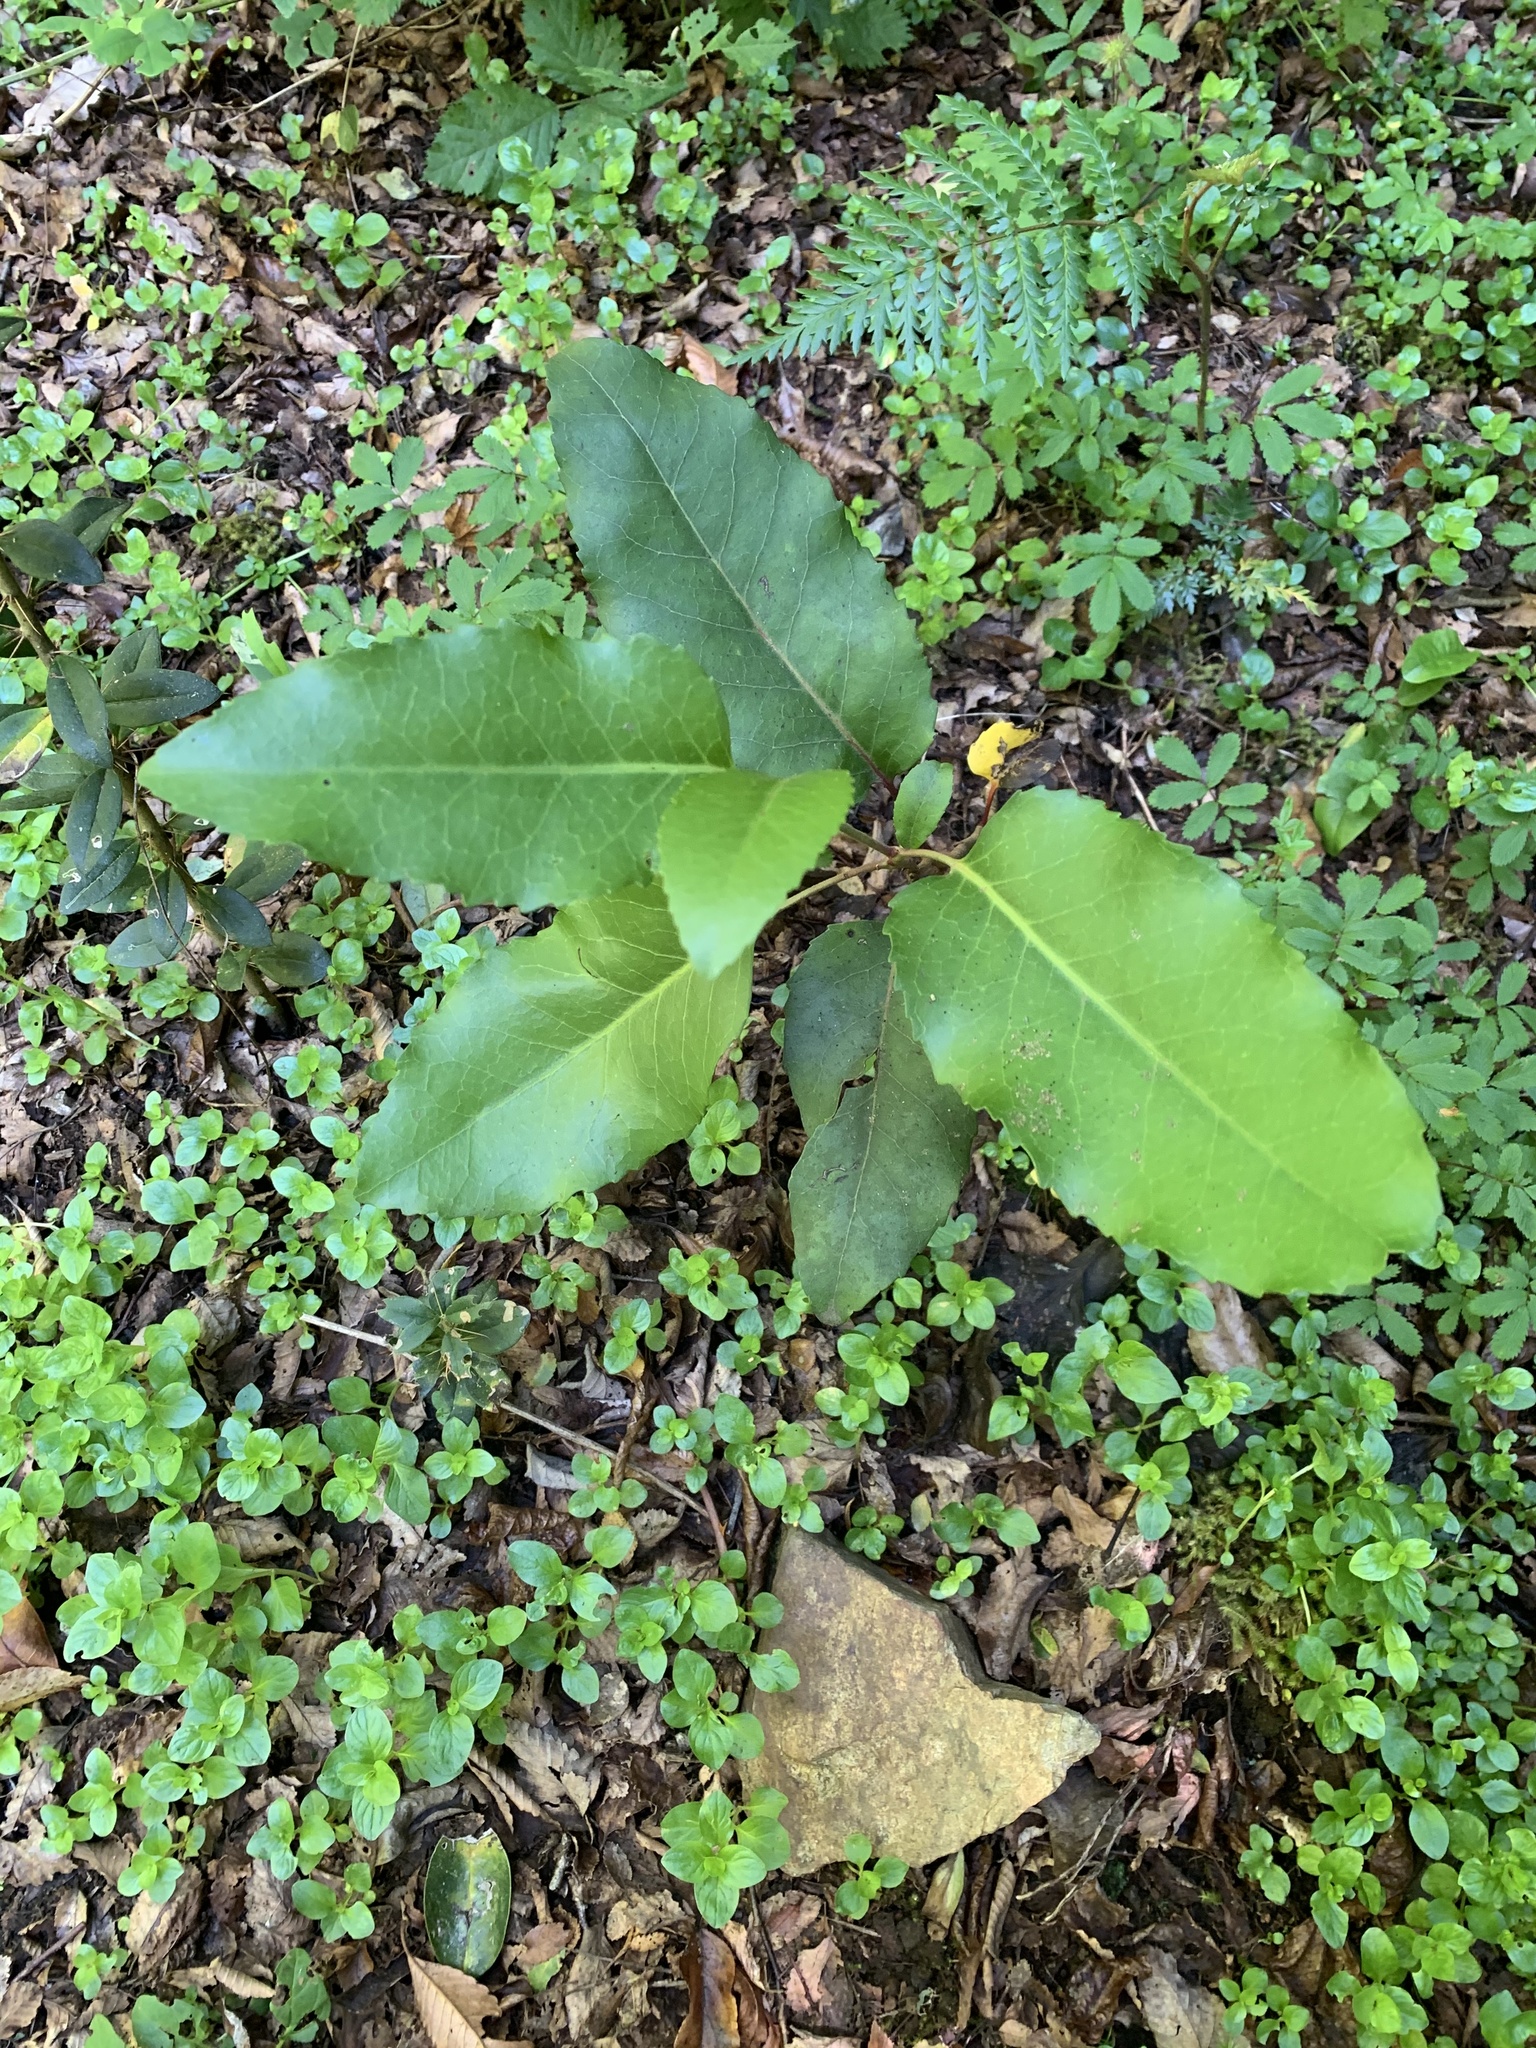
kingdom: Plantae
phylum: Tracheophyta
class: Magnoliopsida
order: Proteales
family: Proteaceae
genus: Lomatia
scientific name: Lomatia hirsuta
